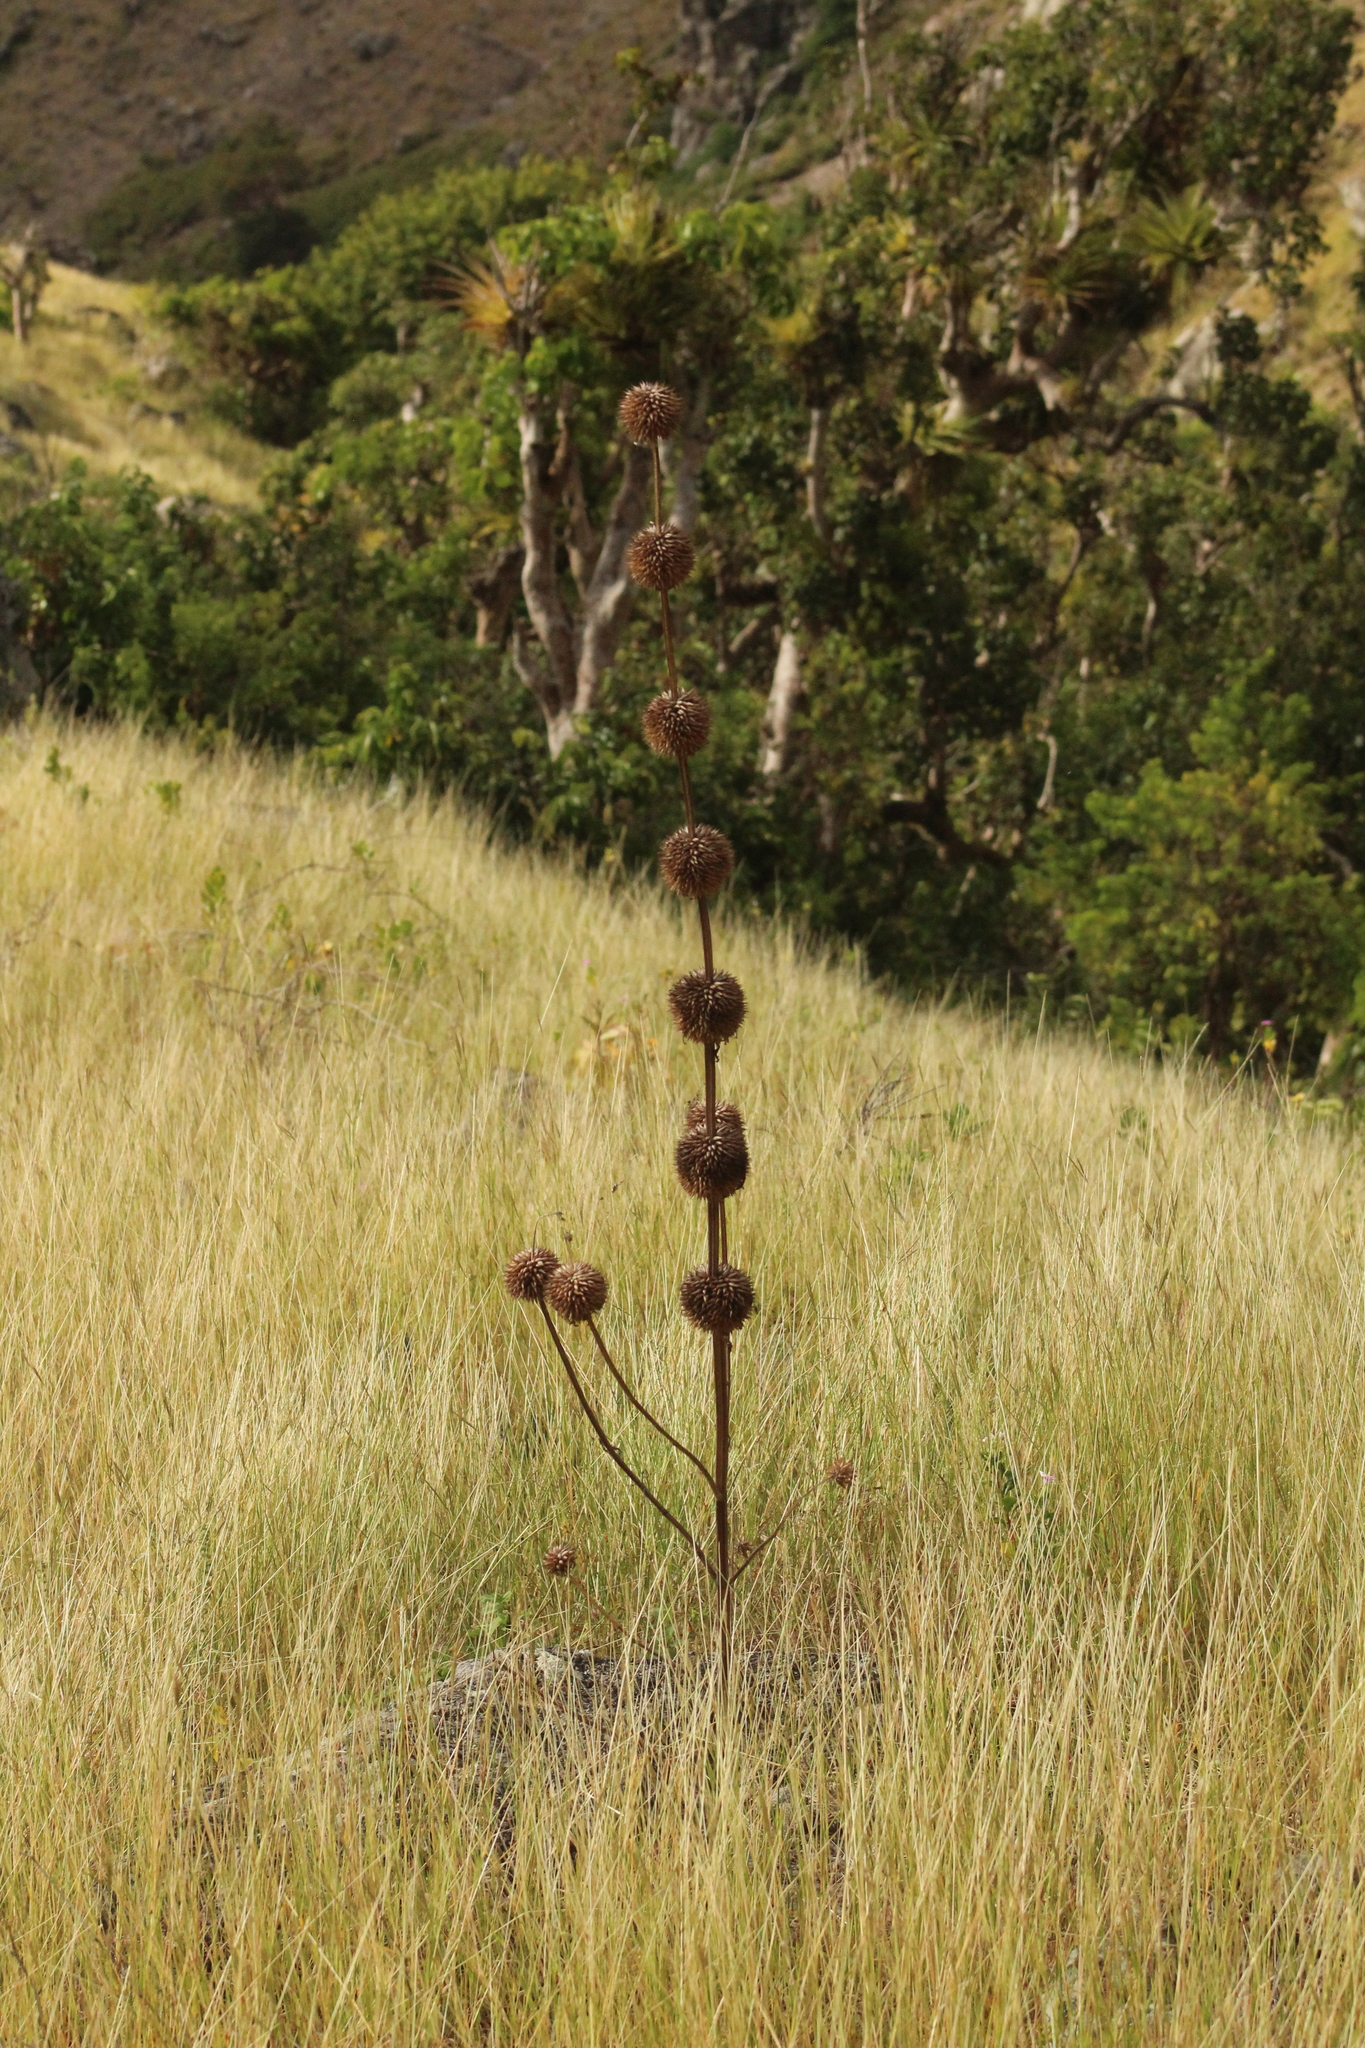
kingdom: Plantae
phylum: Tracheophyta
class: Magnoliopsida
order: Lamiales
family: Lamiaceae
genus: Leonotis
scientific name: Leonotis nepetifolia
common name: Christmas candlestick
